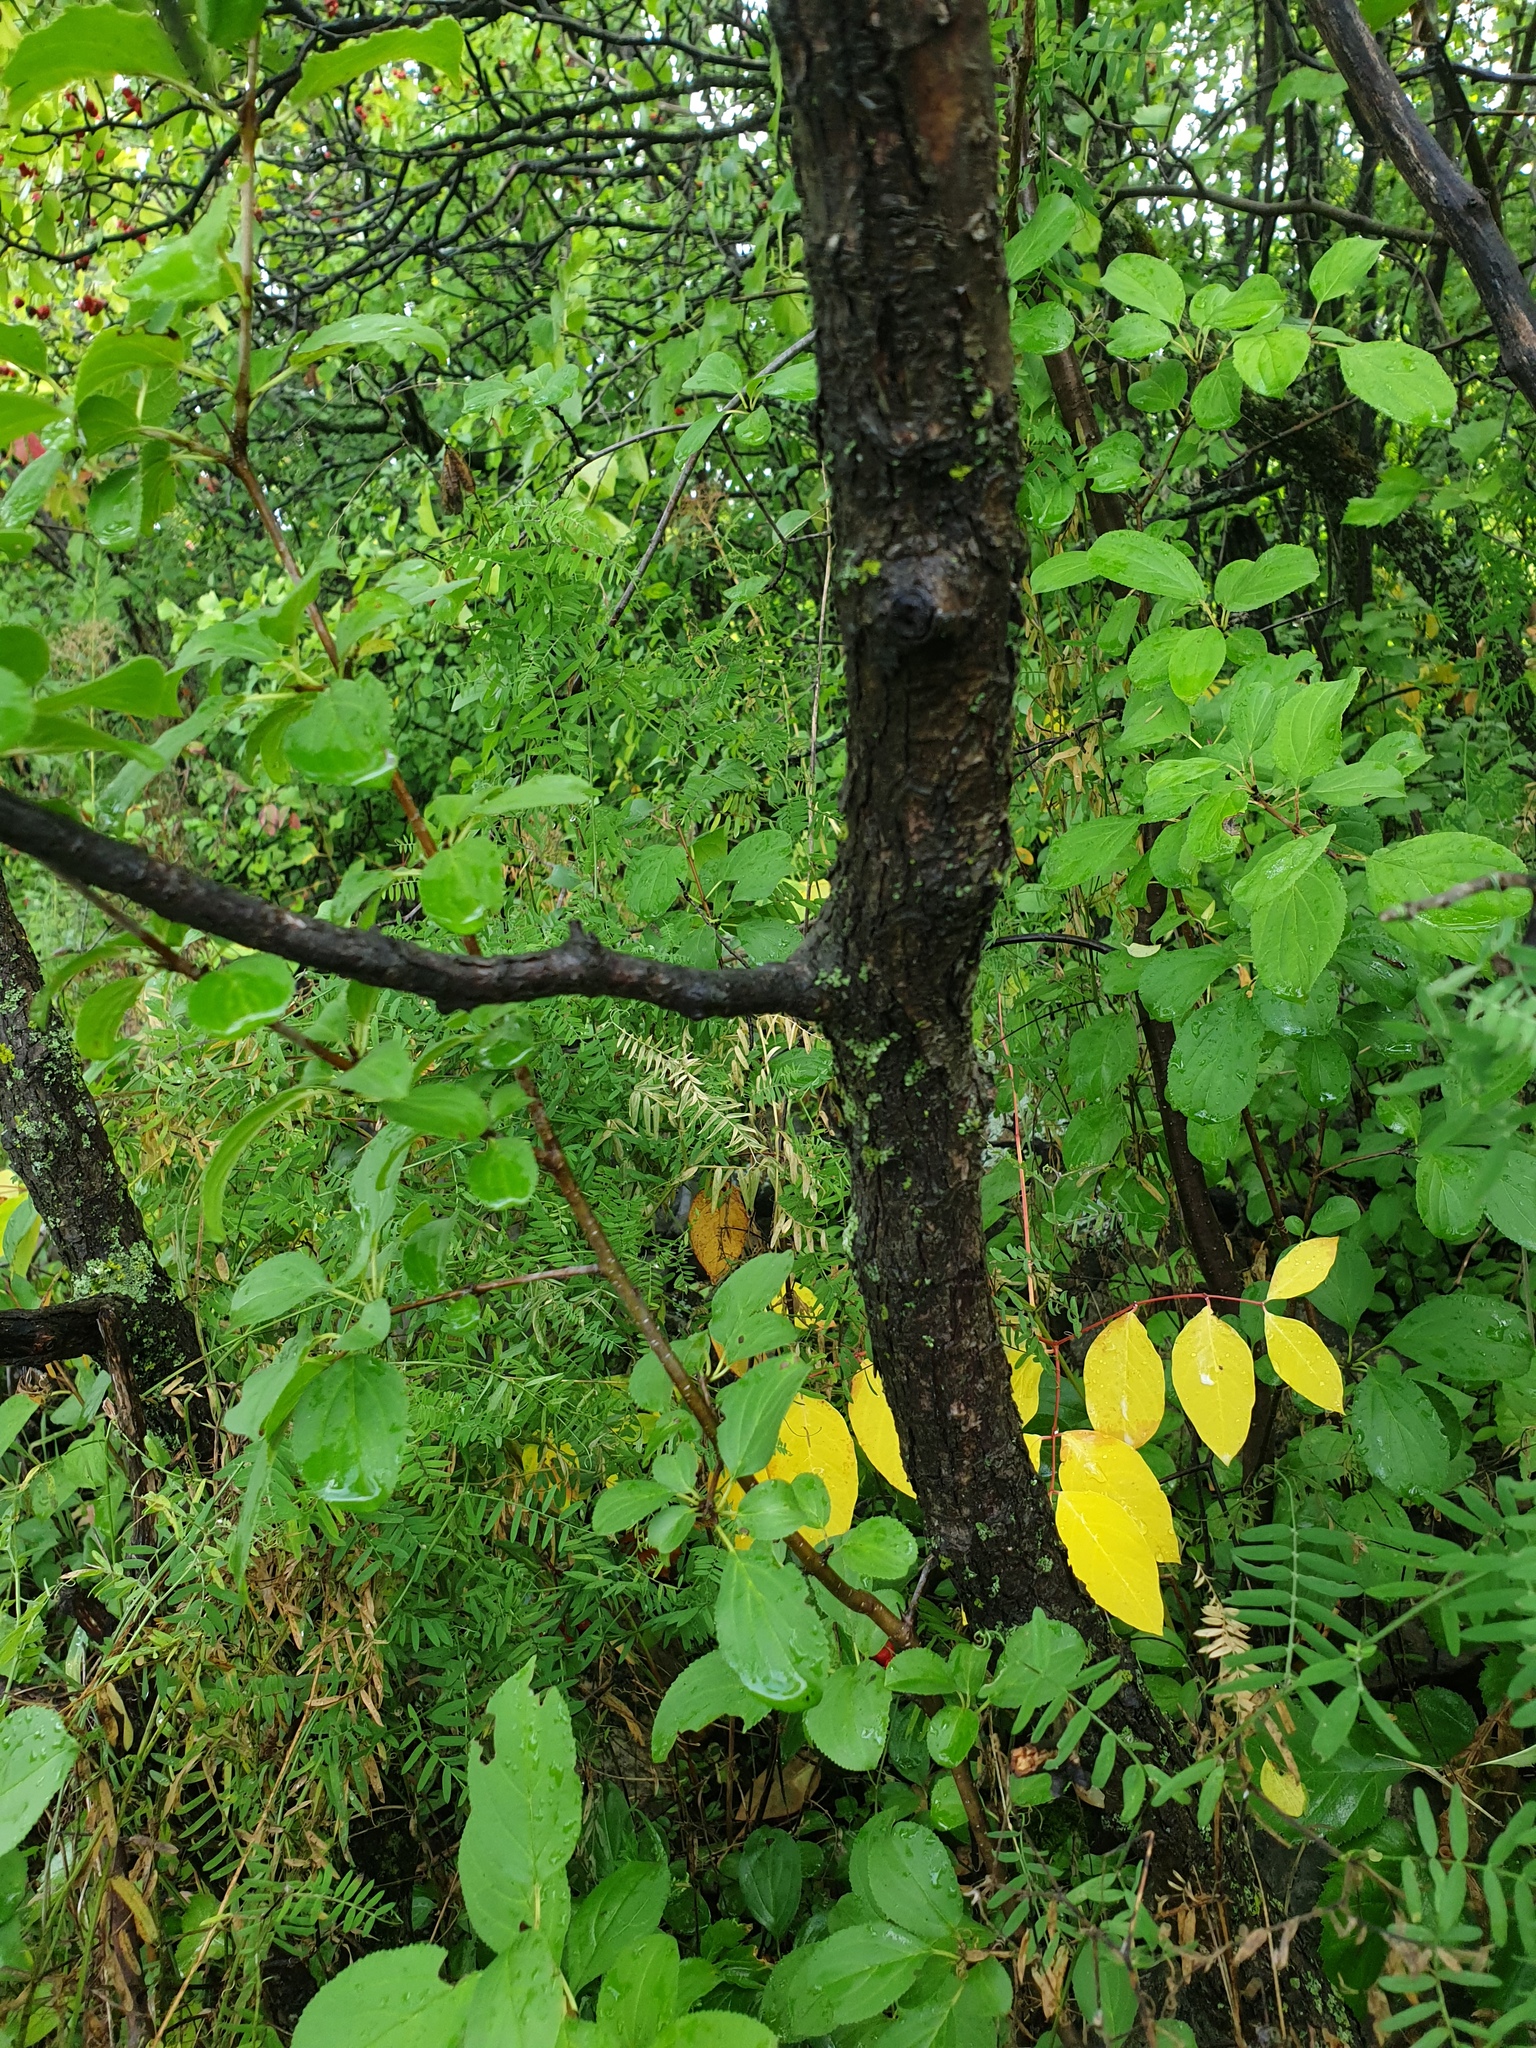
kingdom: Plantae
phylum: Tracheophyta
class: Magnoliopsida
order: Rosales
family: Rosaceae
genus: Crataegus
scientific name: Crataegus irrasa
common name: Unshorn hawthorn
